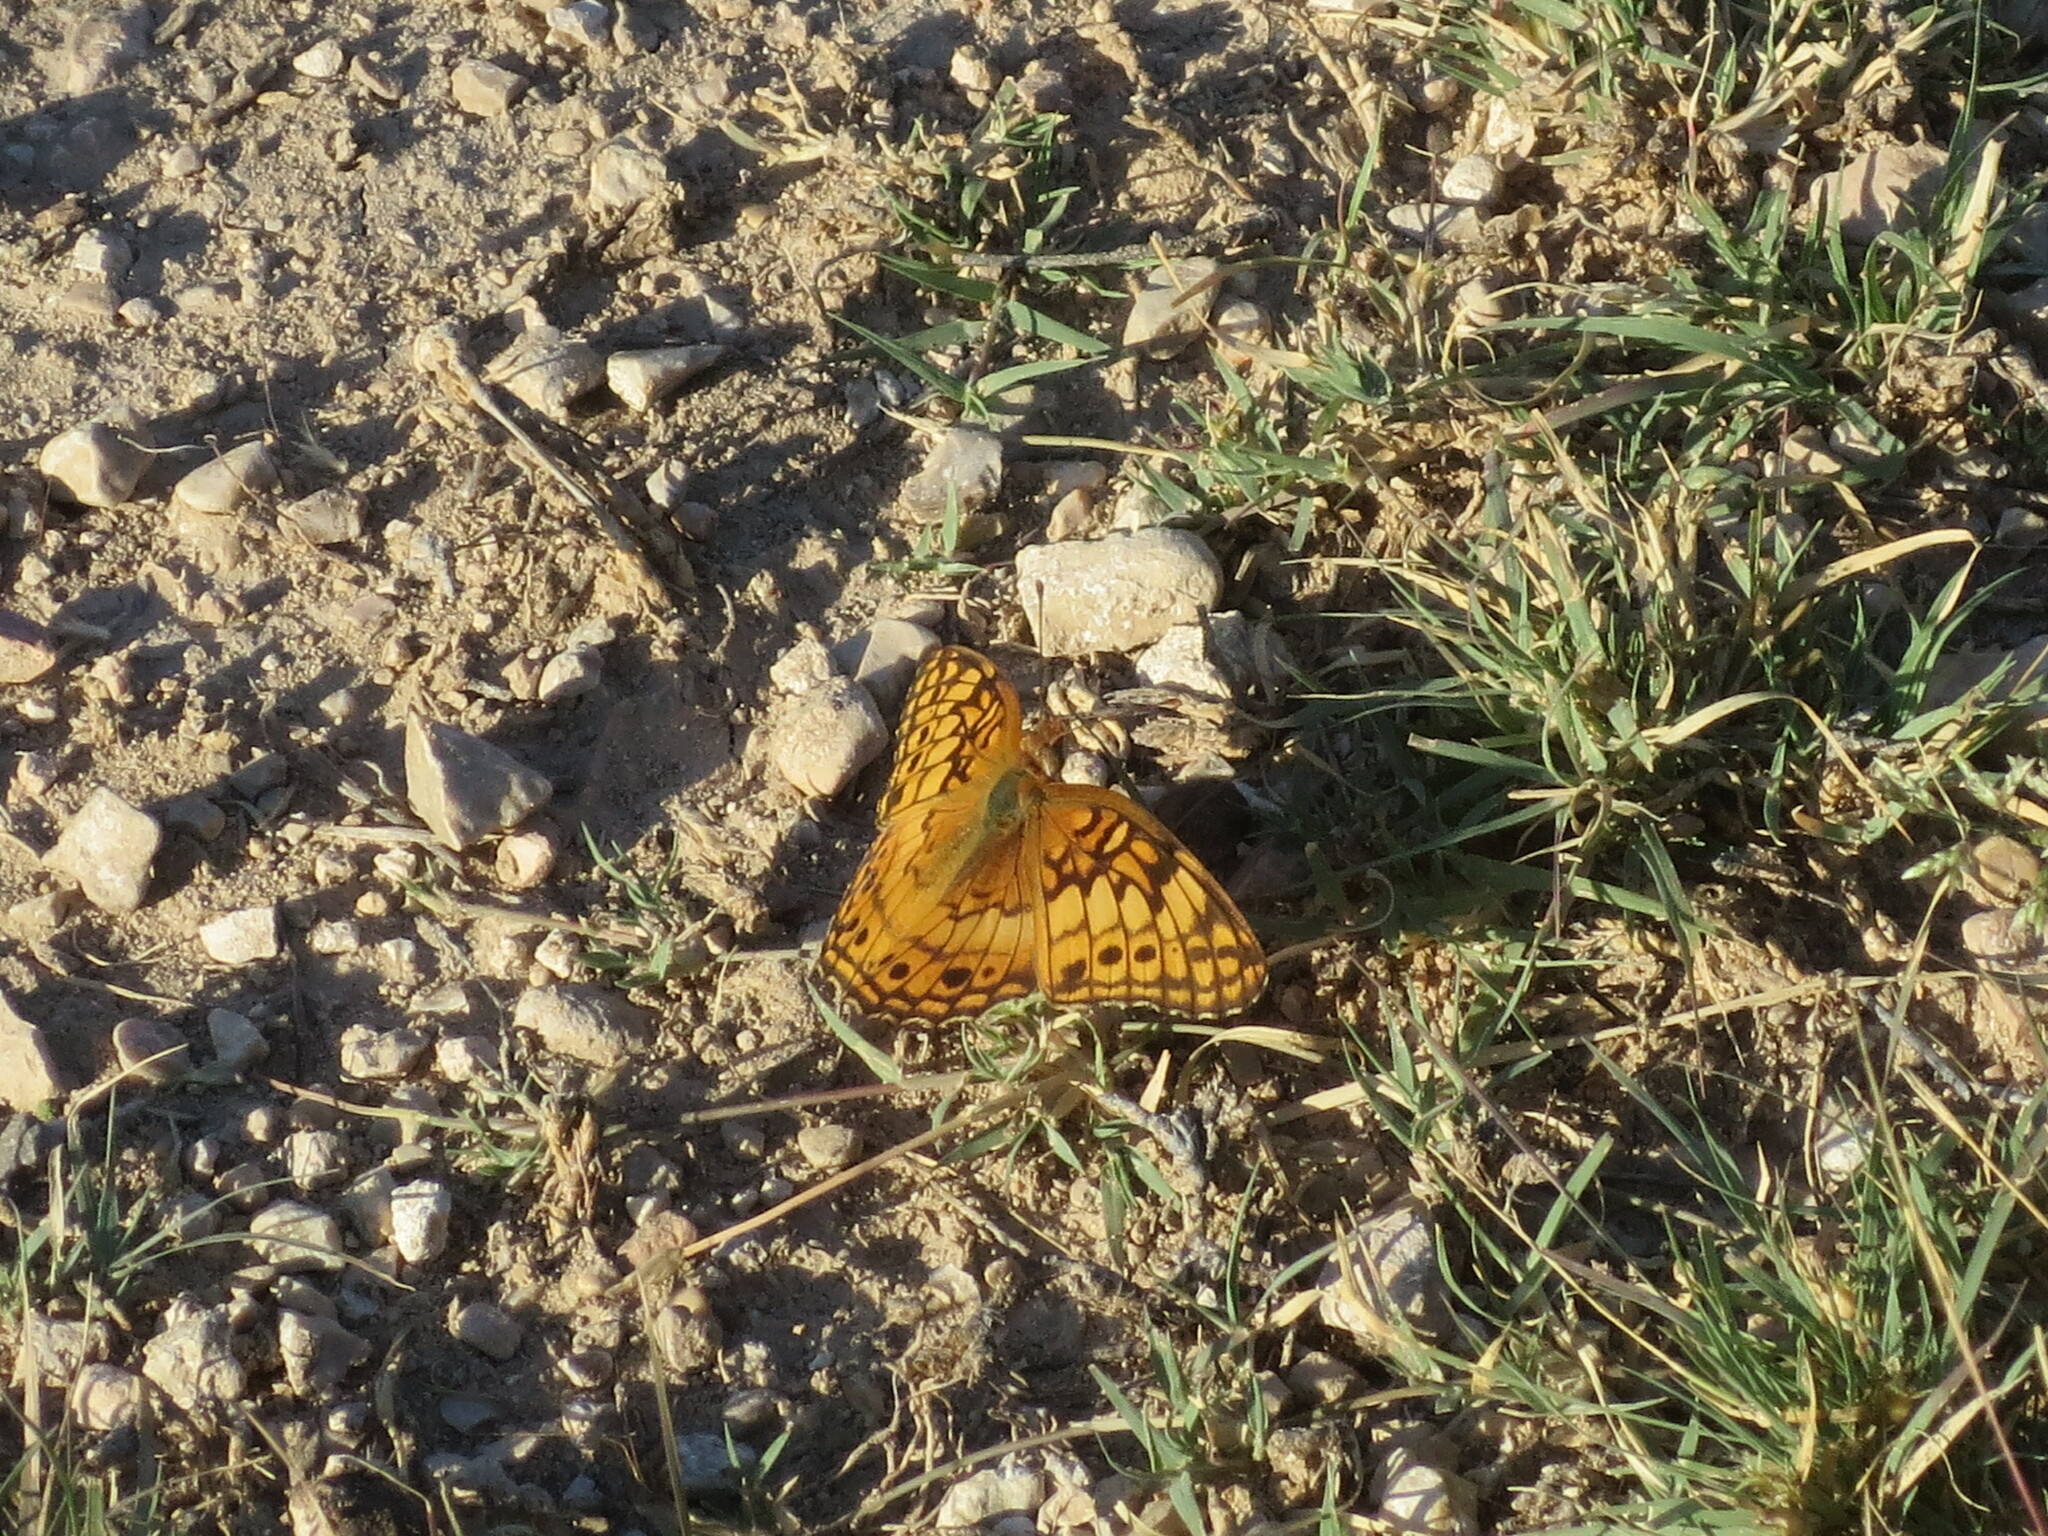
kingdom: Animalia
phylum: Arthropoda
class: Insecta
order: Lepidoptera
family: Nymphalidae
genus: Euptoieta
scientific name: Euptoieta claudia
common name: Variegated fritillary
